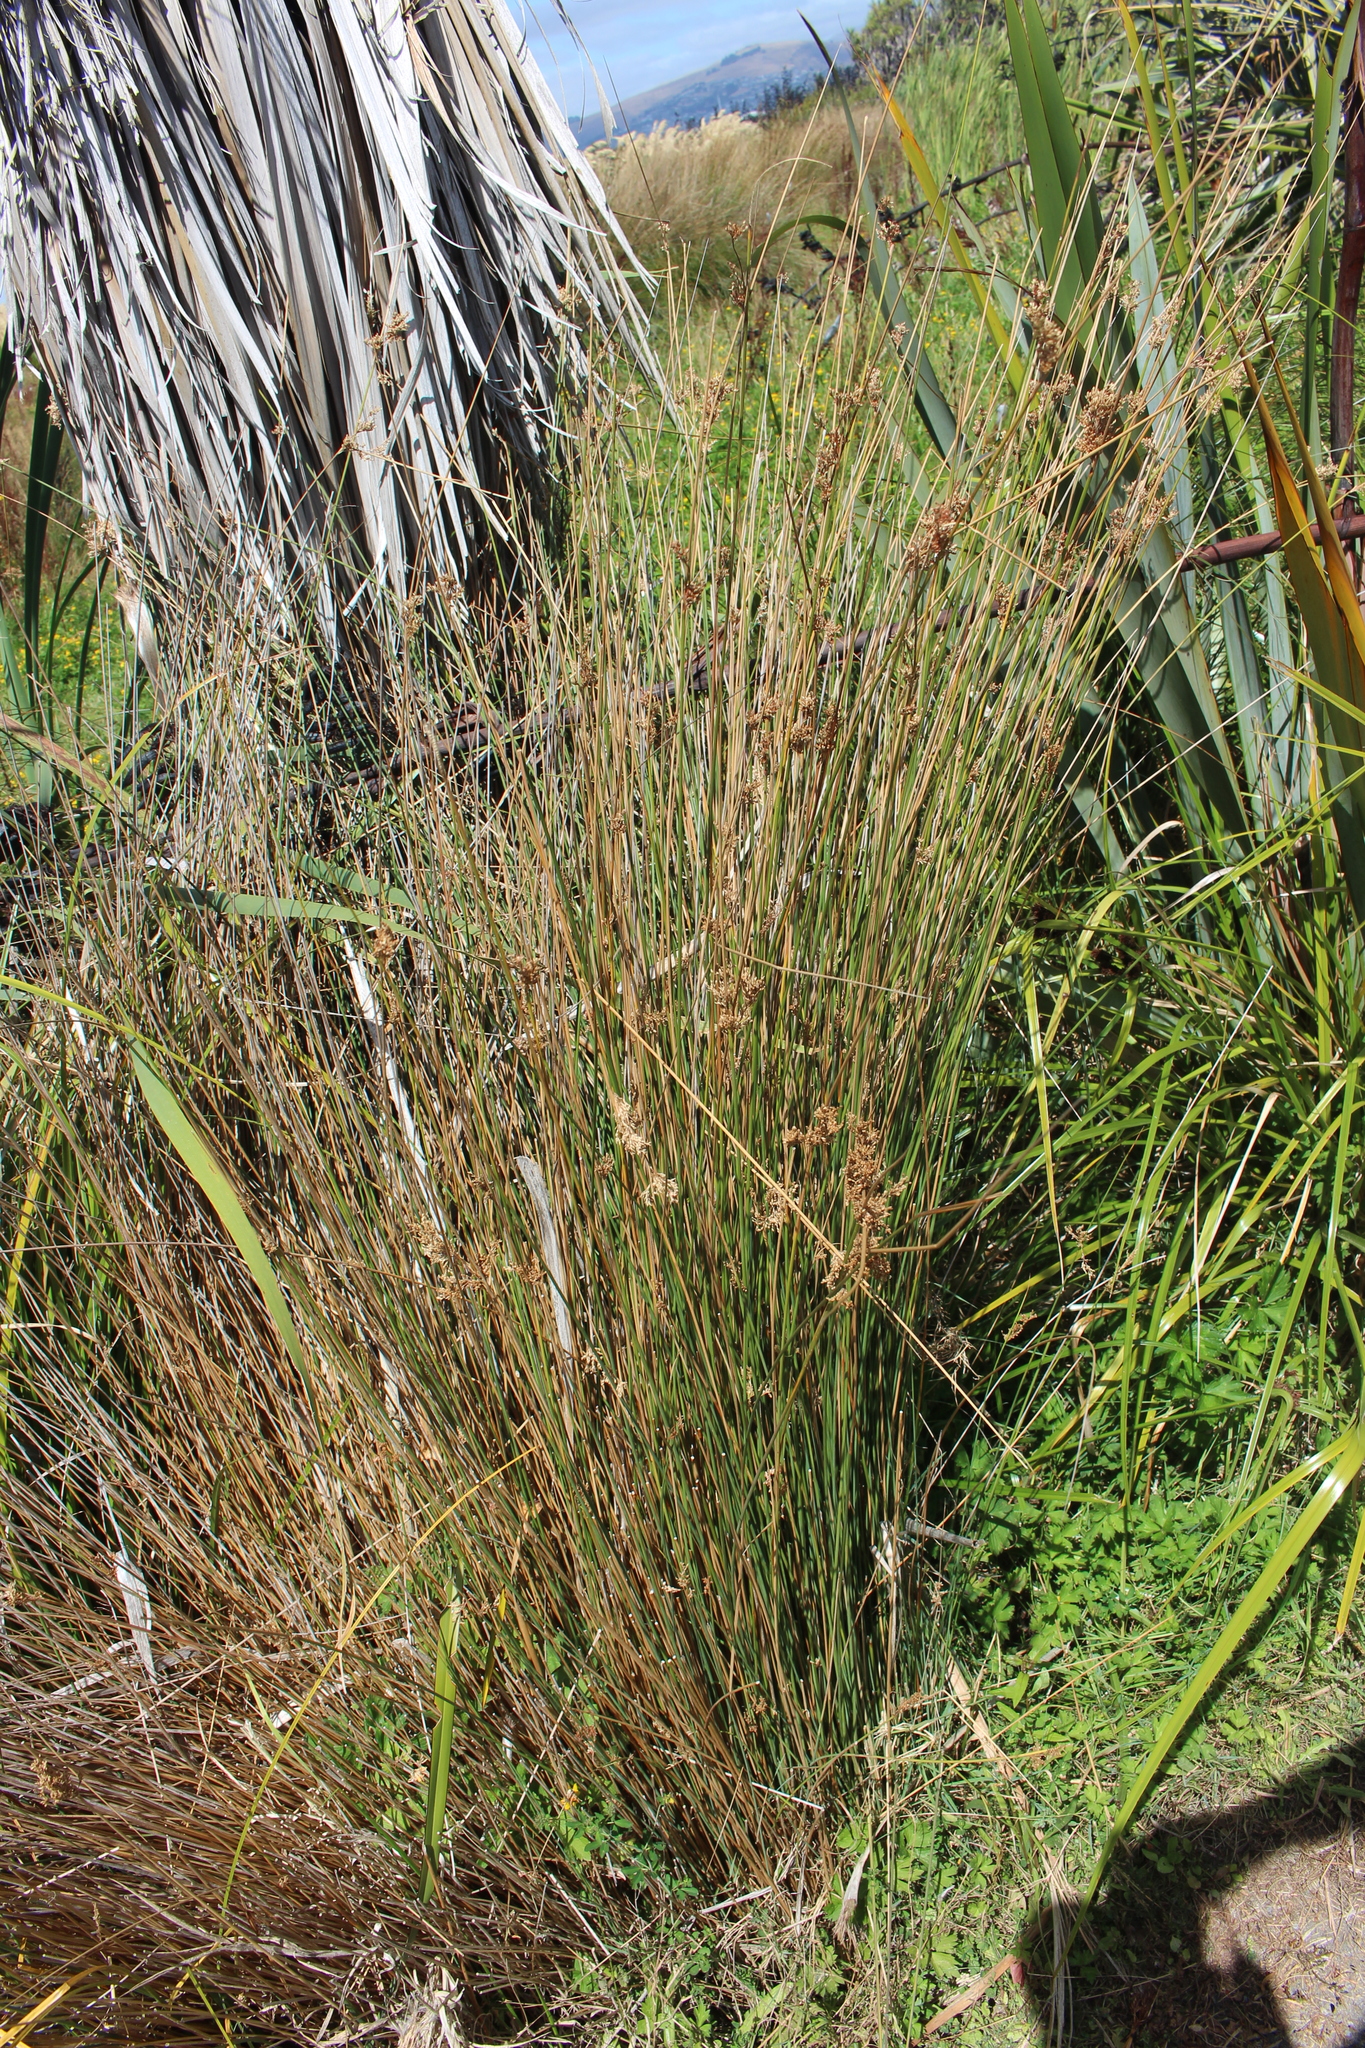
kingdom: Plantae
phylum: Tracheophyta
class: Liliopsida
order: Poales
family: Juncaceae
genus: Juncus
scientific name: Juncus sarophorus
